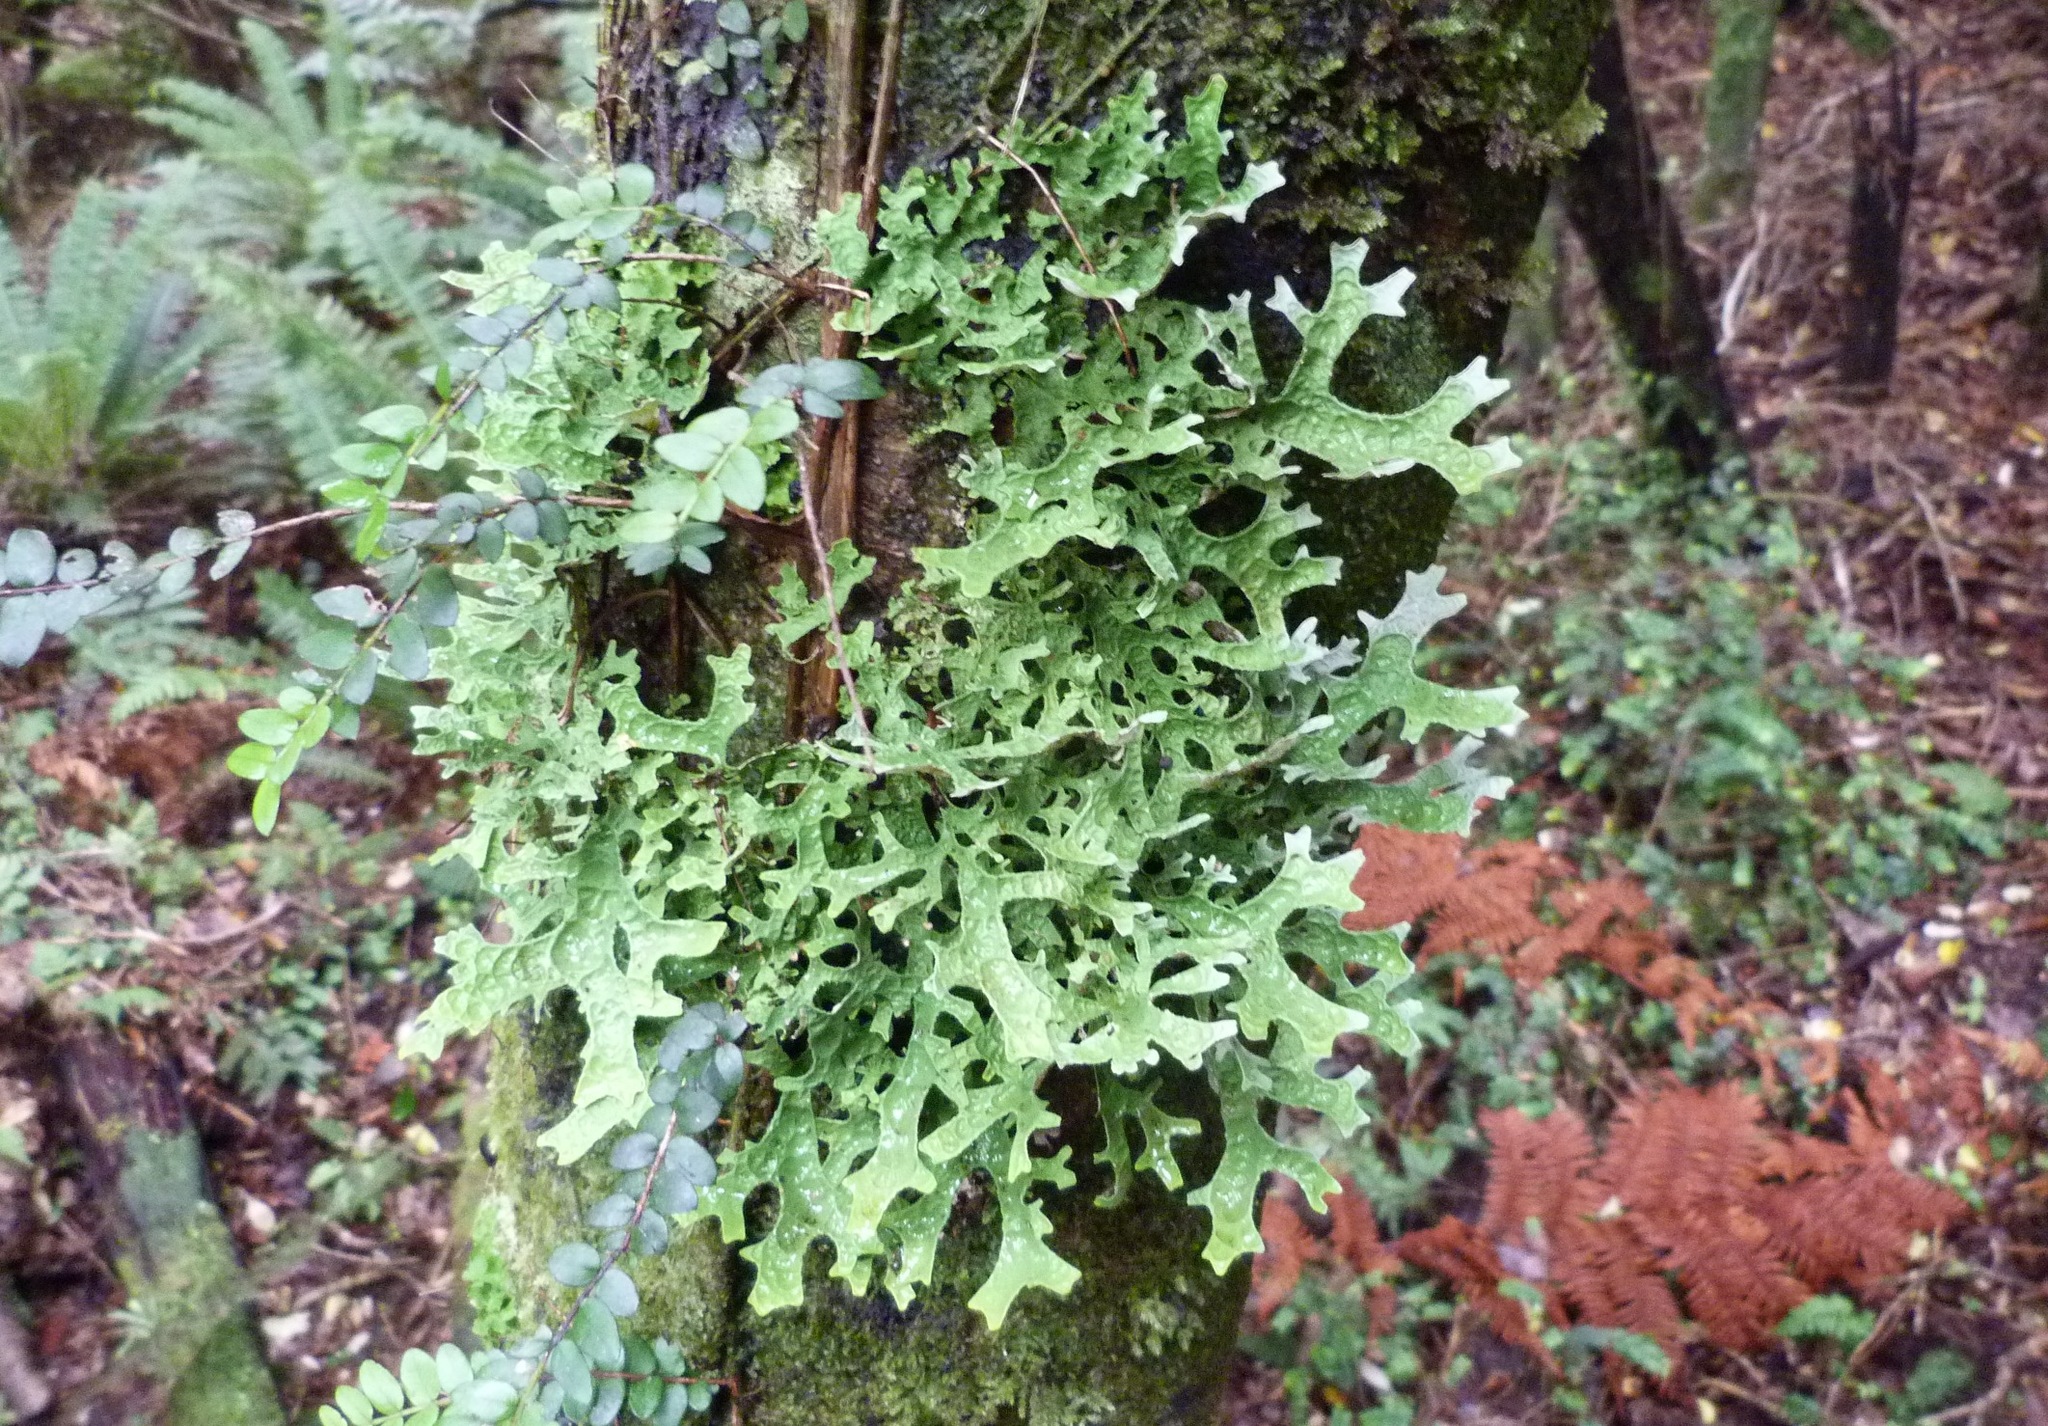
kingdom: Fungi
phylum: Ascomycota
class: Lecanoromycetes
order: Peltigerales
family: Lobariaceae
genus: Pseudocyphellaria
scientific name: Pseudocyphellaria billardierei
